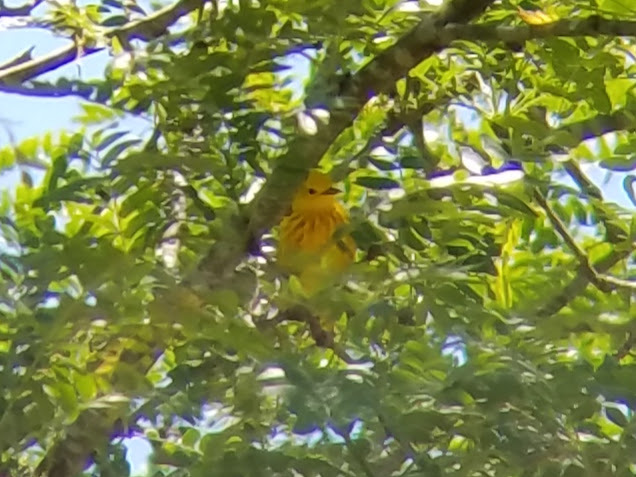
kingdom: Animalia
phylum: Chordata
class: Aves
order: Passeriformes
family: Parulidae
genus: Setophaga
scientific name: Setophaga petechia
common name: Yellow warbler
